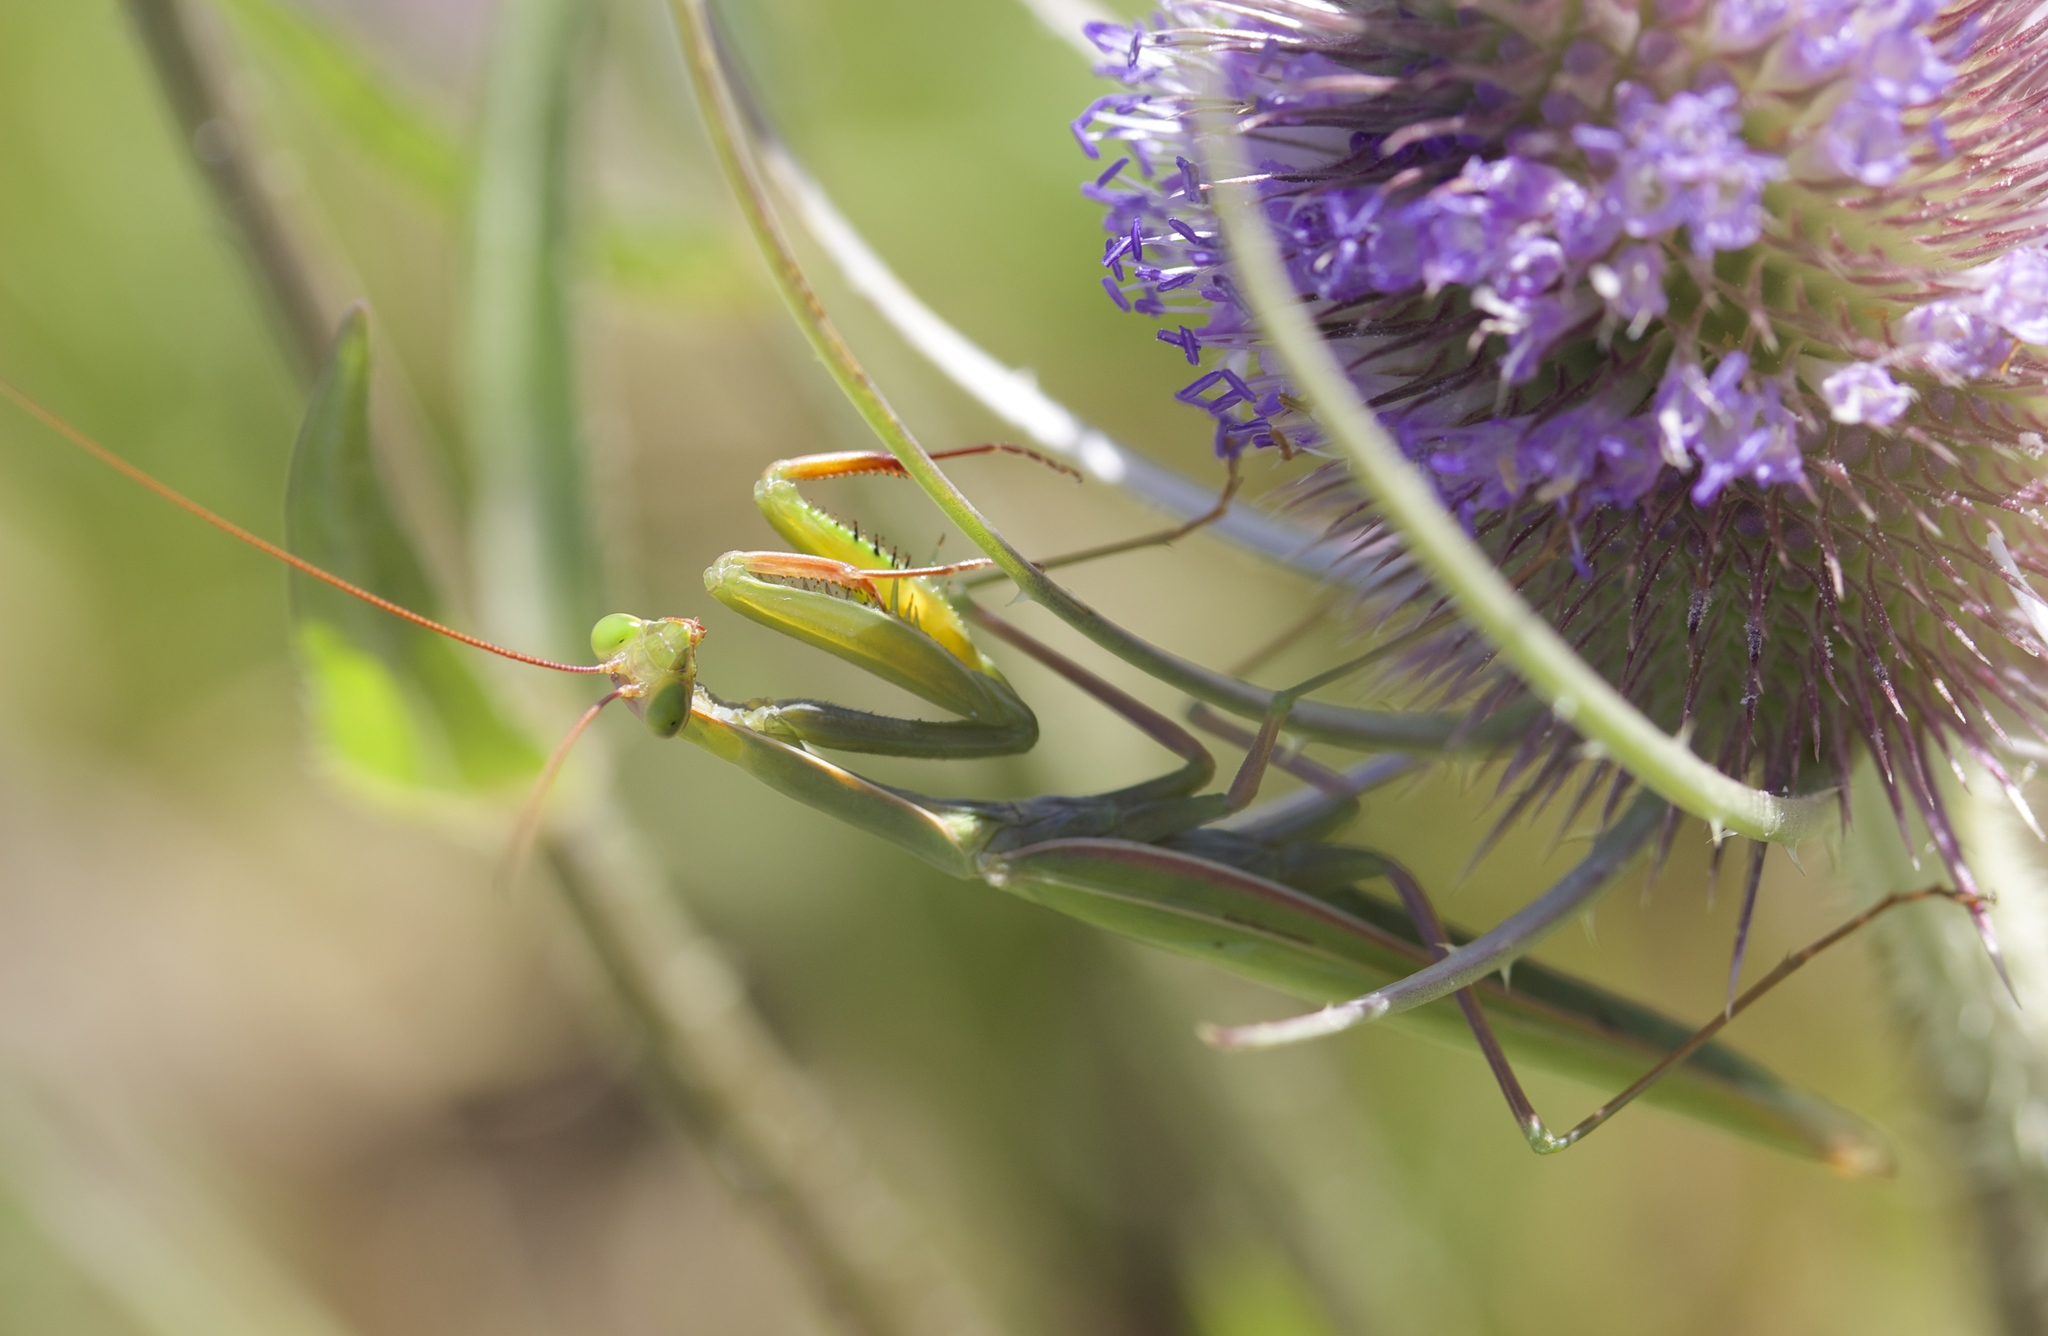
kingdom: Animalia
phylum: Arthropoda
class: Insecta
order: Mantodea
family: Mantidae
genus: Mantis
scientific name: Mantis religiosa
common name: Praying mantis
